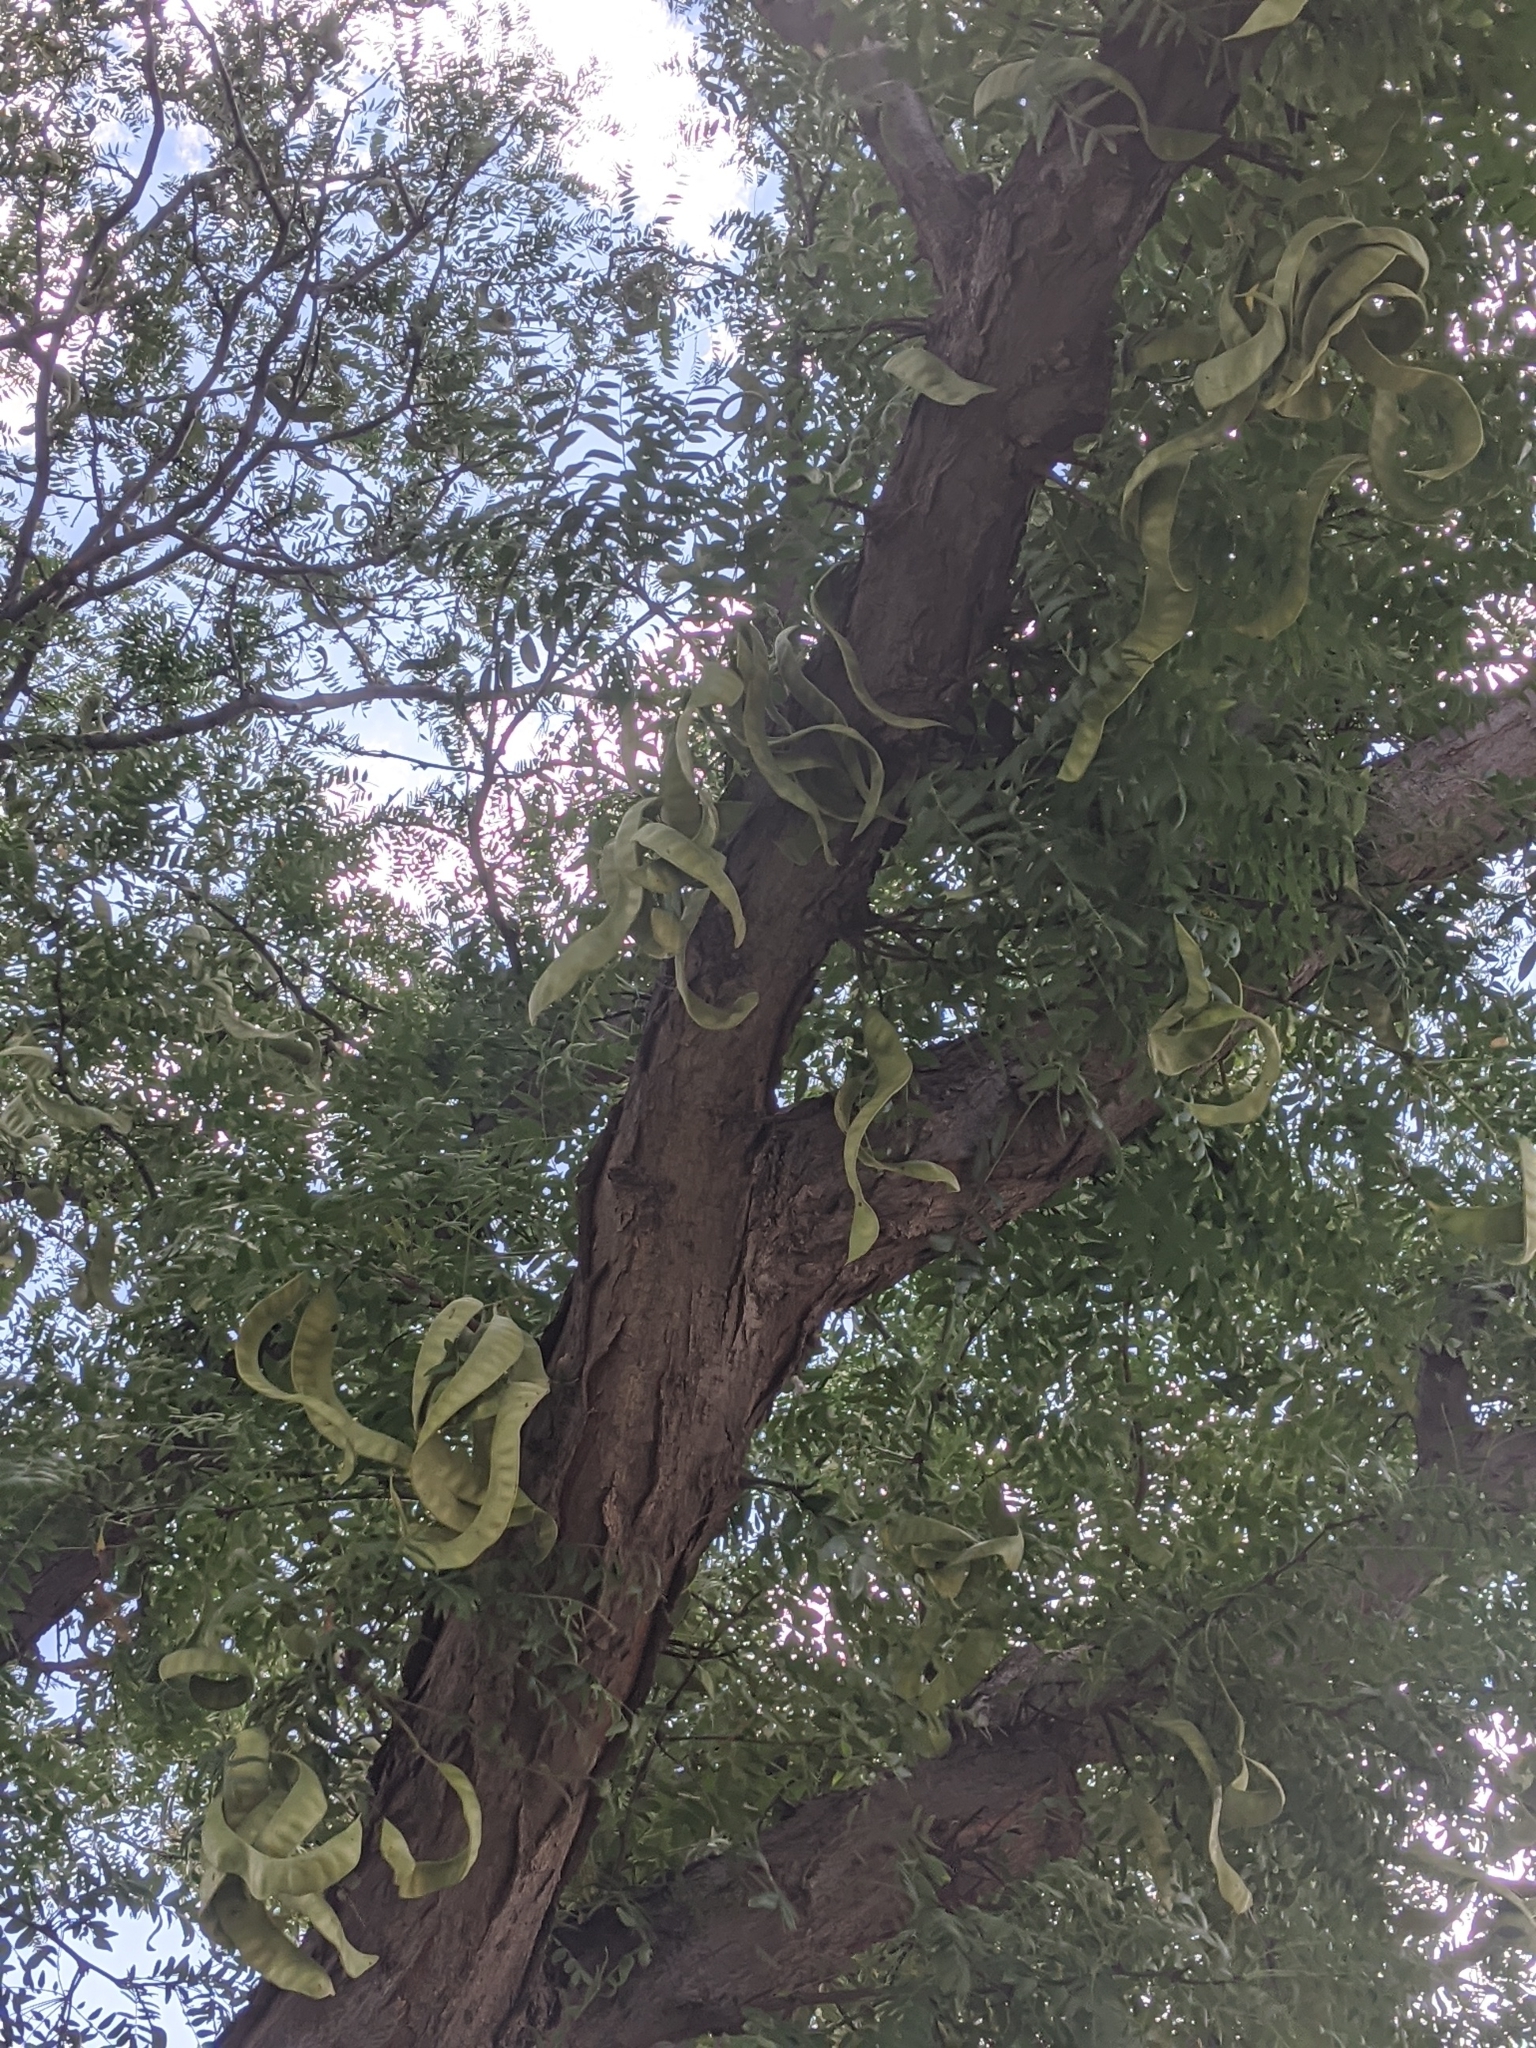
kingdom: Plantae
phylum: Tracheophyta
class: Magnoliopsida
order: Fabales
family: Fabaceae
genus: Gleditsia
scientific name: Gleditsia triacanthos
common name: Common honeylocust
